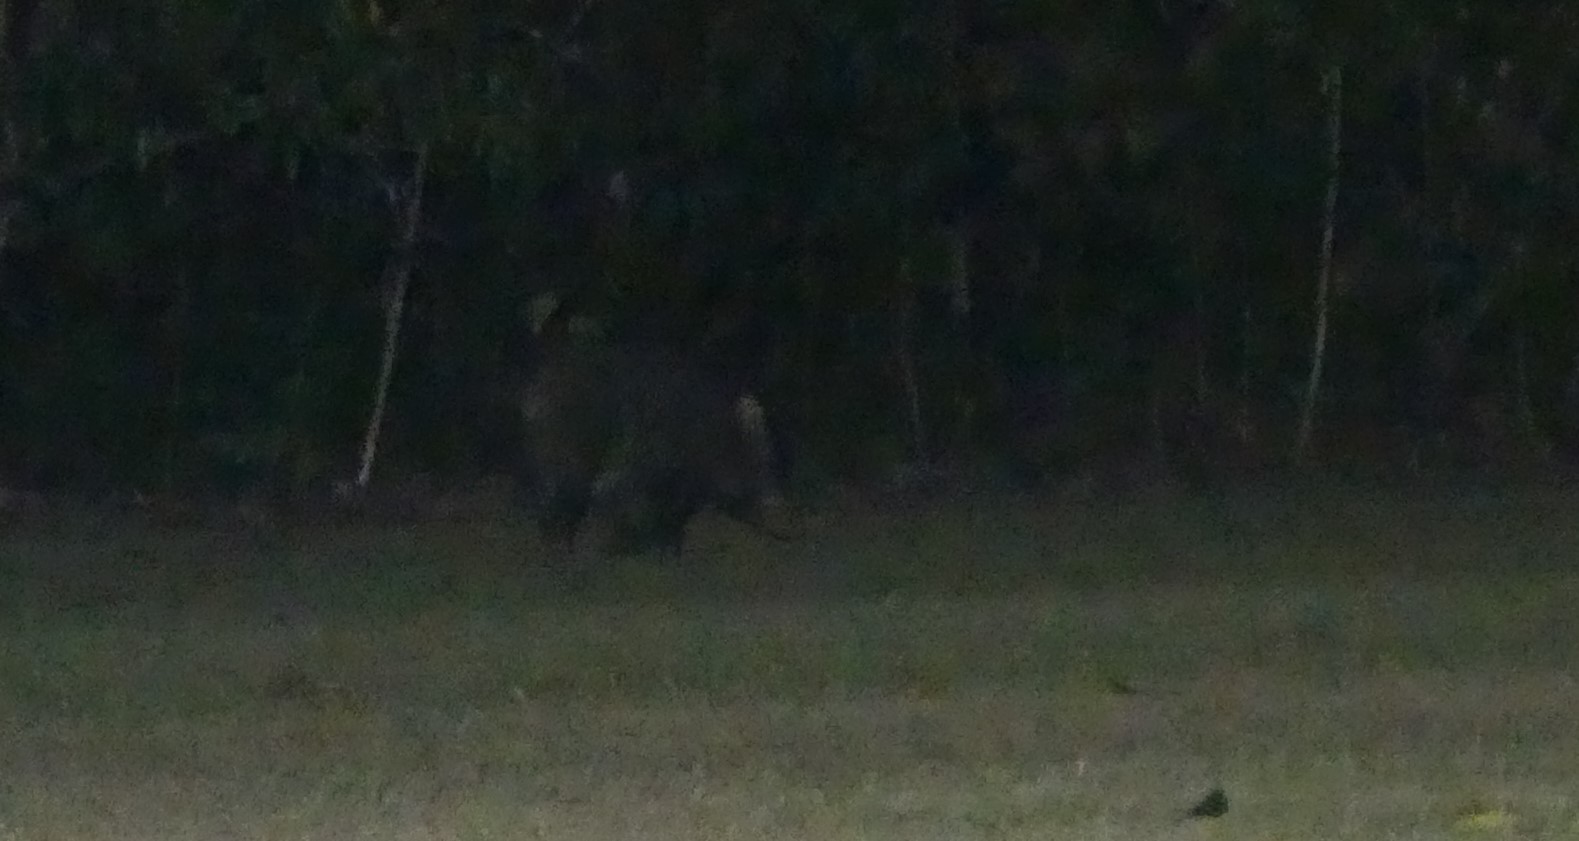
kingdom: Animalia
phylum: Chordata
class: Mammalia
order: Artiodactyla
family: Suidae
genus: Sus
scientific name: Sus scrofa
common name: Wild boar
